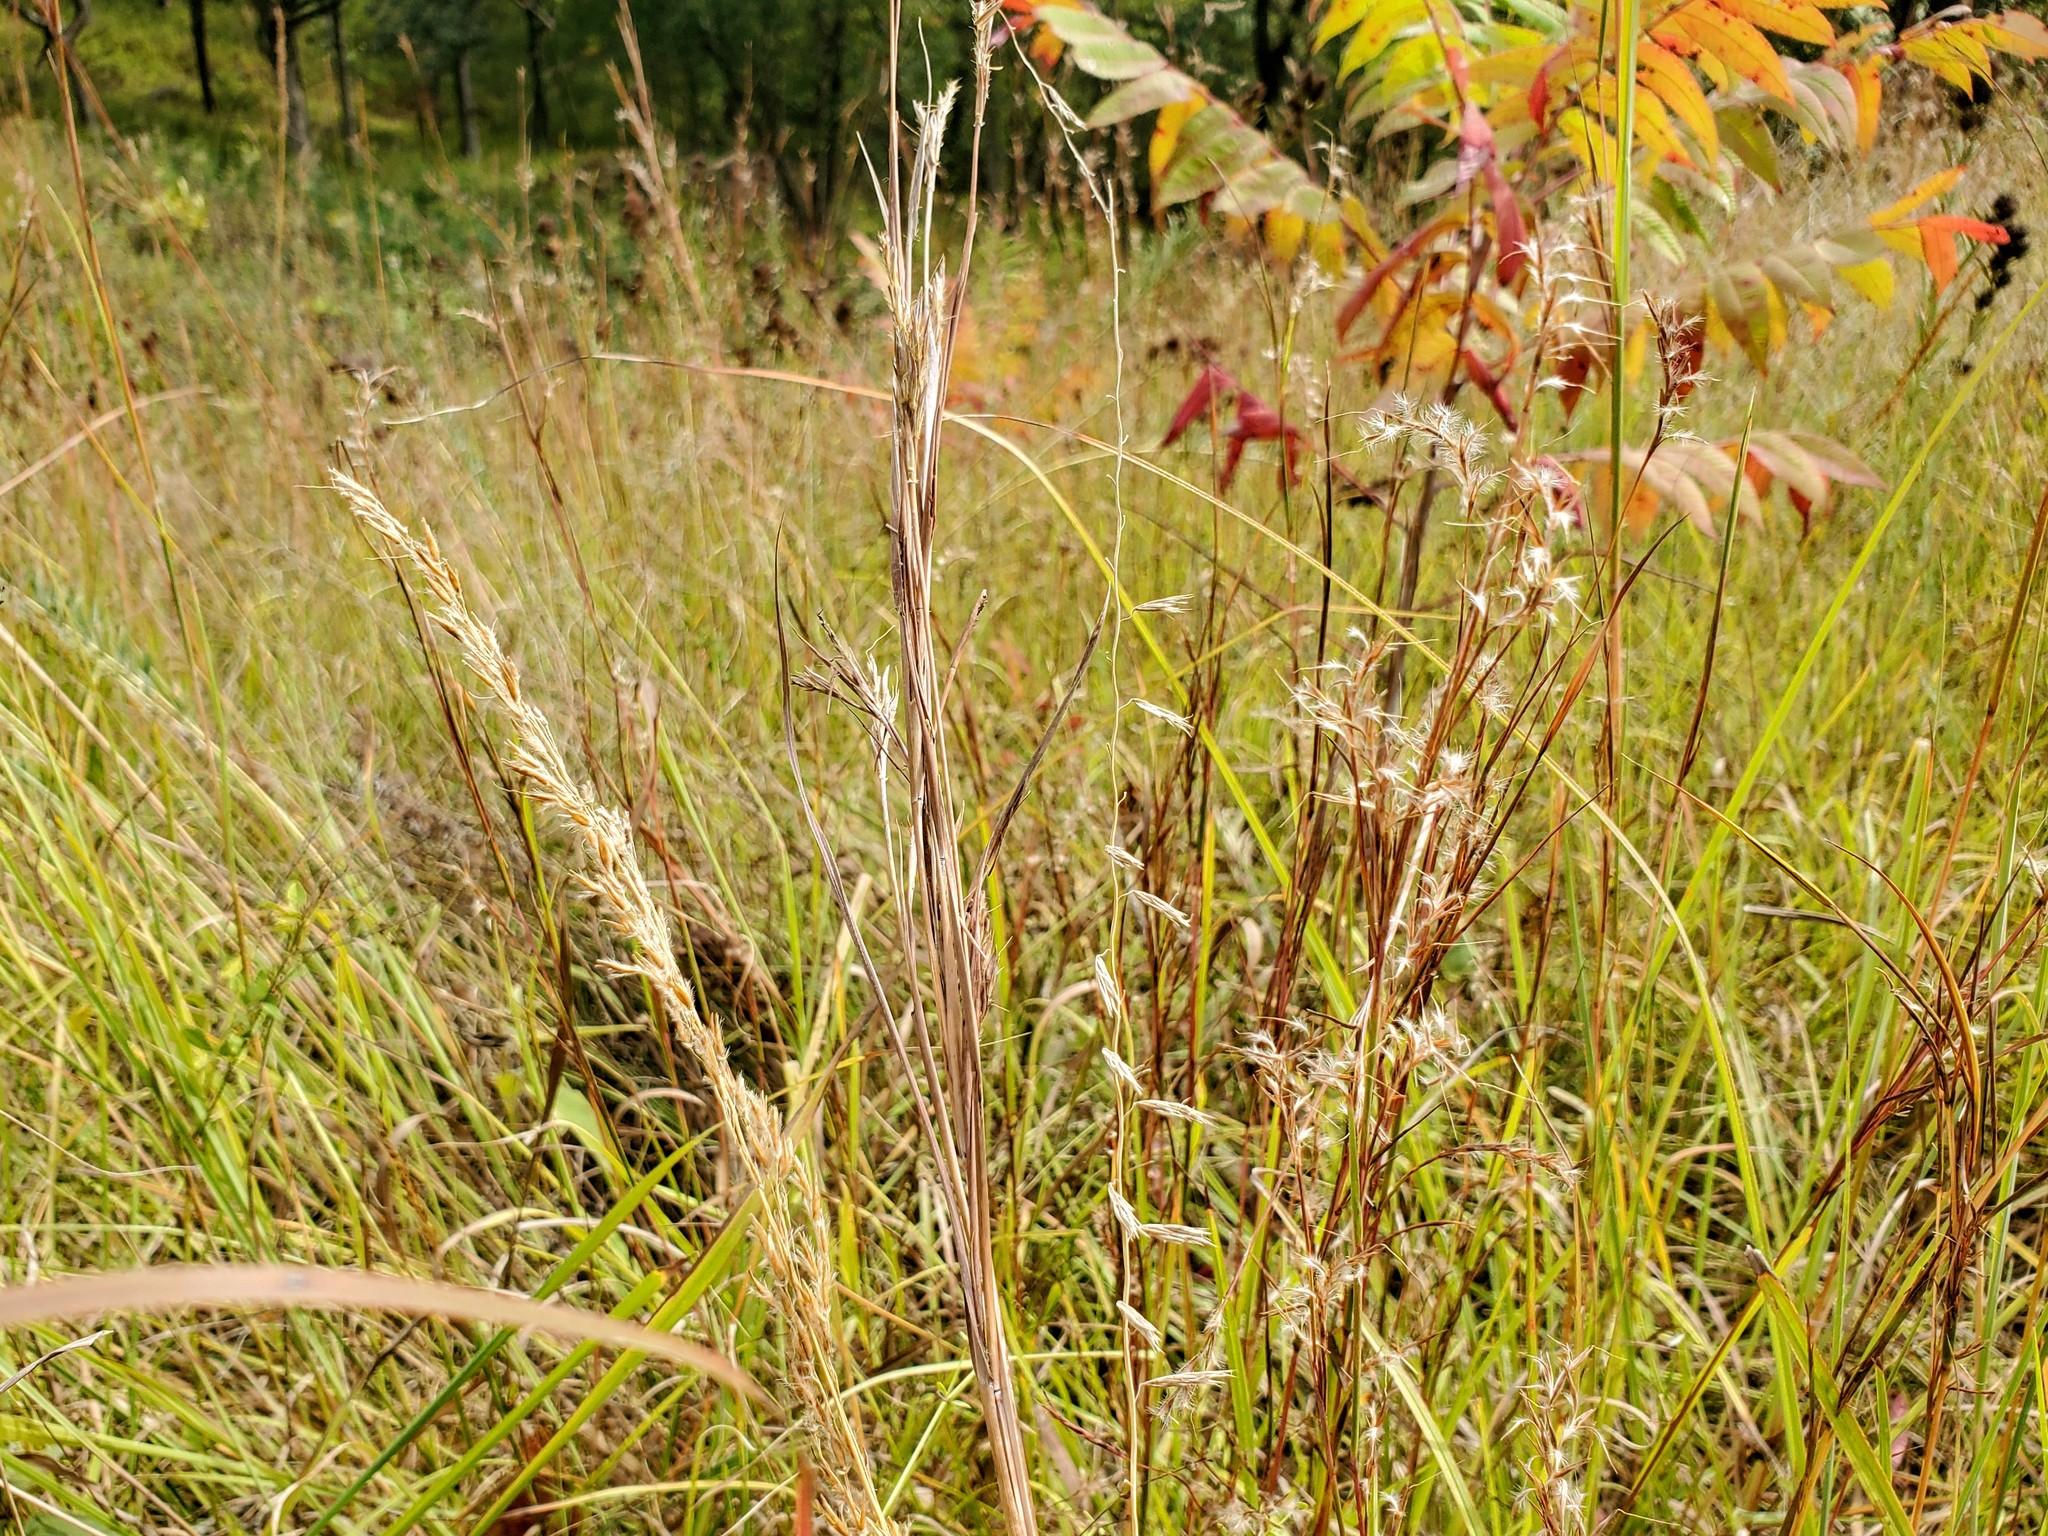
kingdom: Plantae
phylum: Tracheophyta
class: Liliopsida
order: Poales
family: Poaceae
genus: Sorghastrum
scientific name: Sorghastrum nutans
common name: Indian grass
